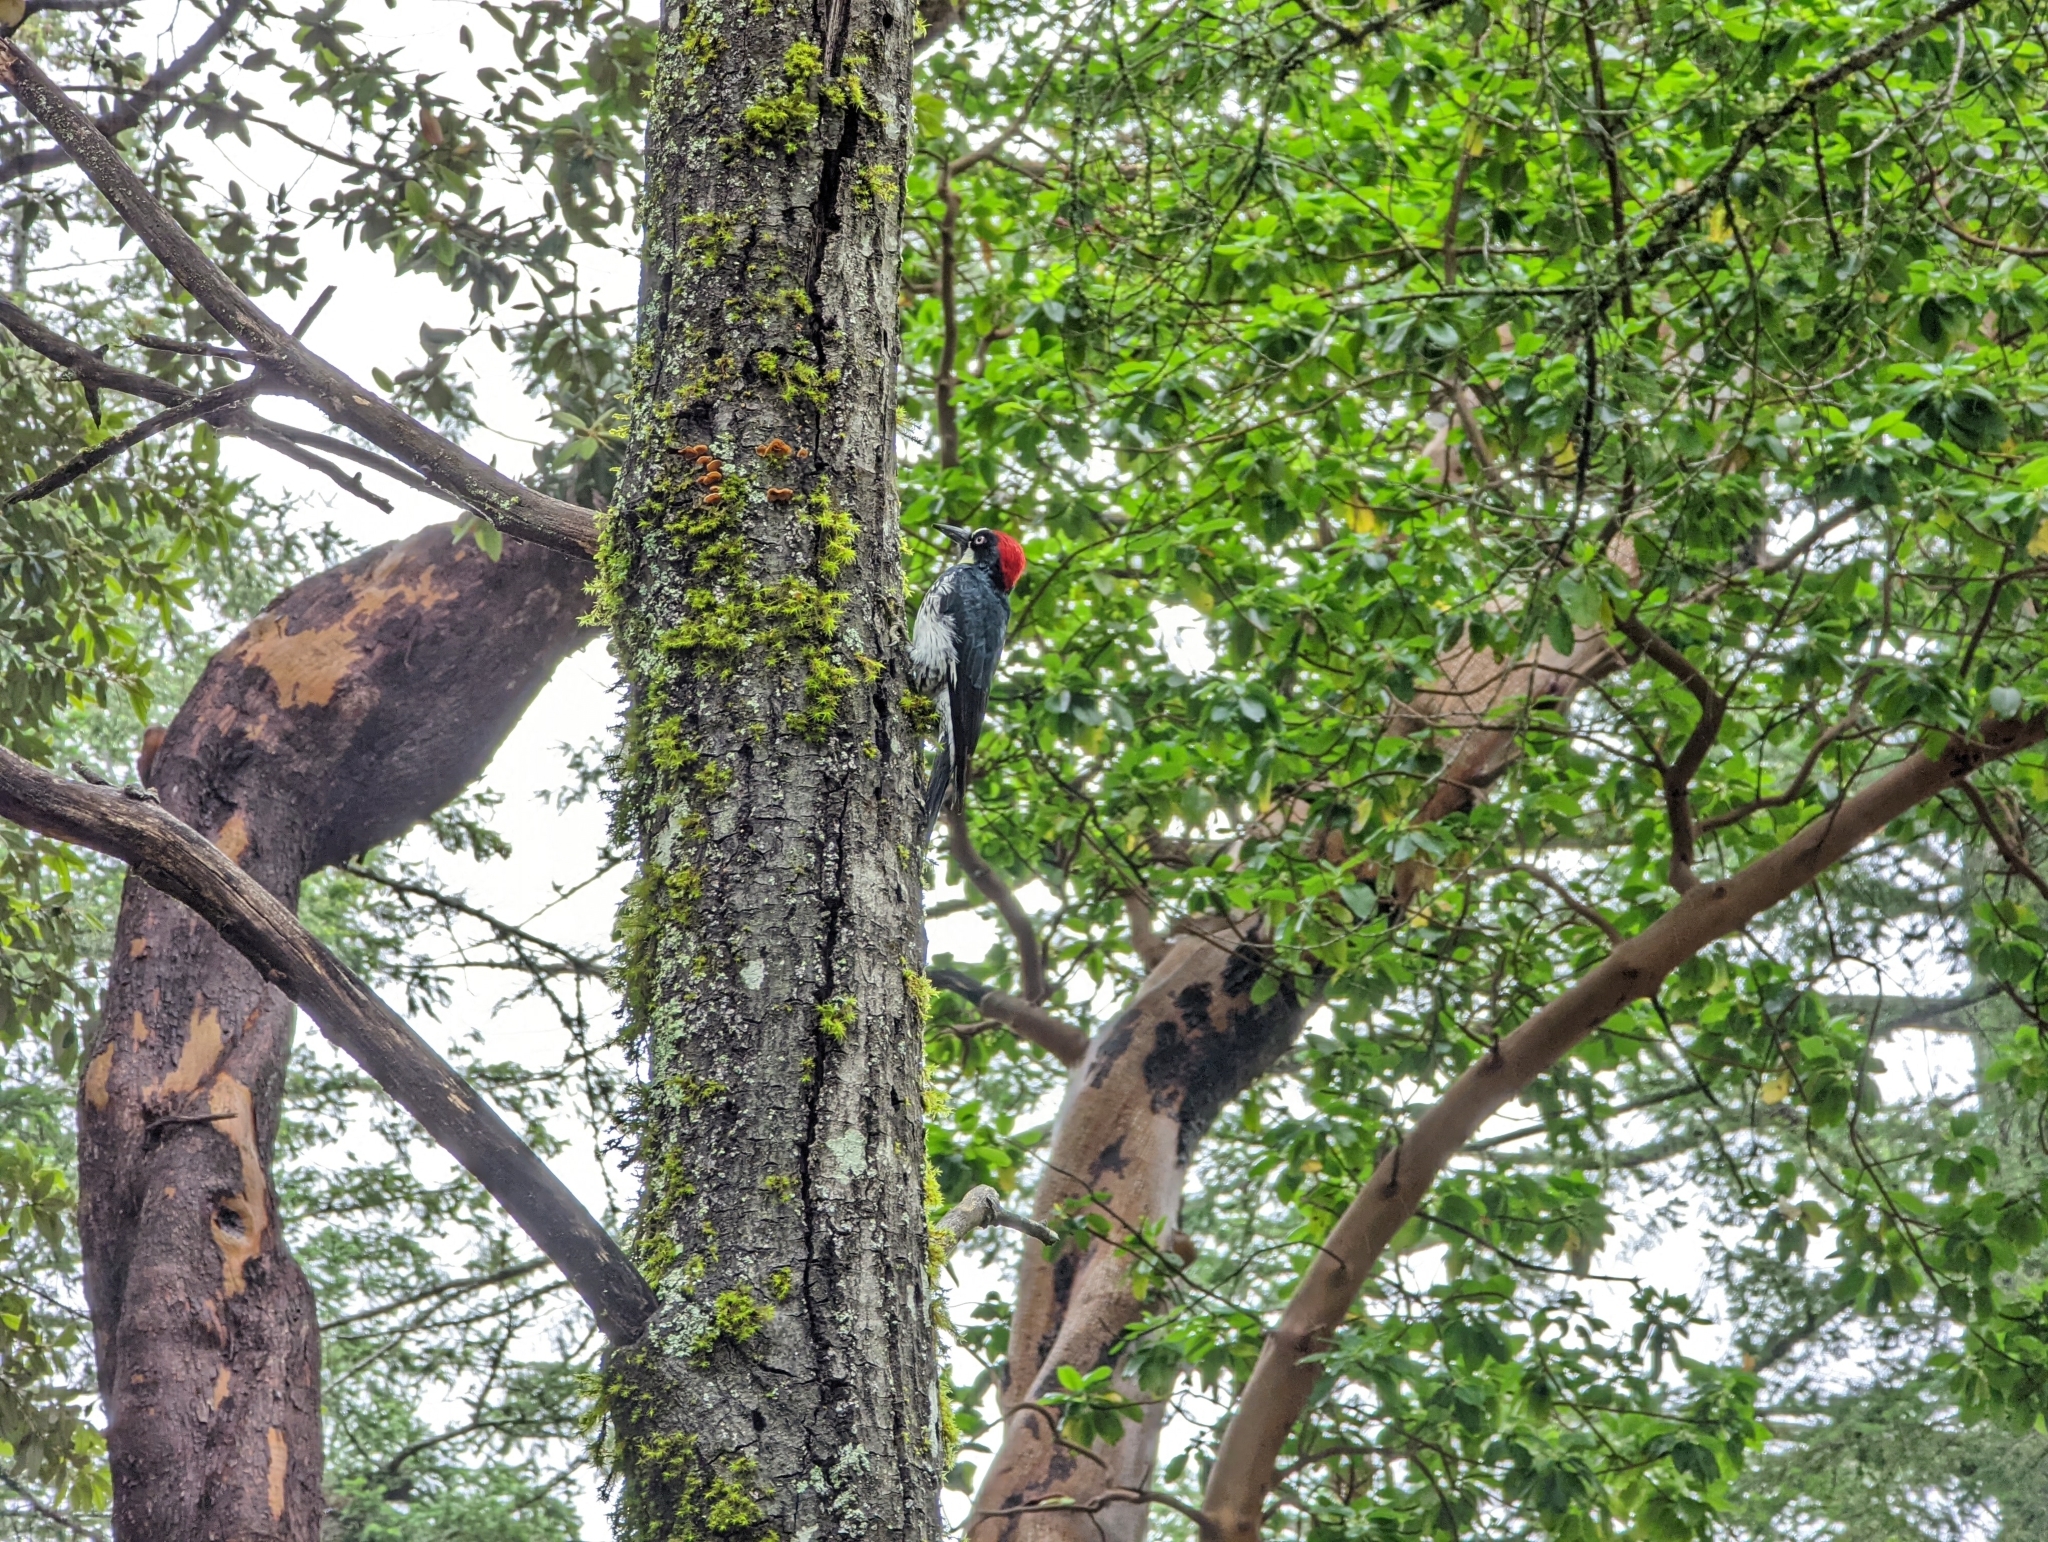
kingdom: Animalia
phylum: Chordata
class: Aves
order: Piciformes
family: Picidae
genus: Melanerpes
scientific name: Melanerpes formicivorus
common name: Acorn woodpecker
